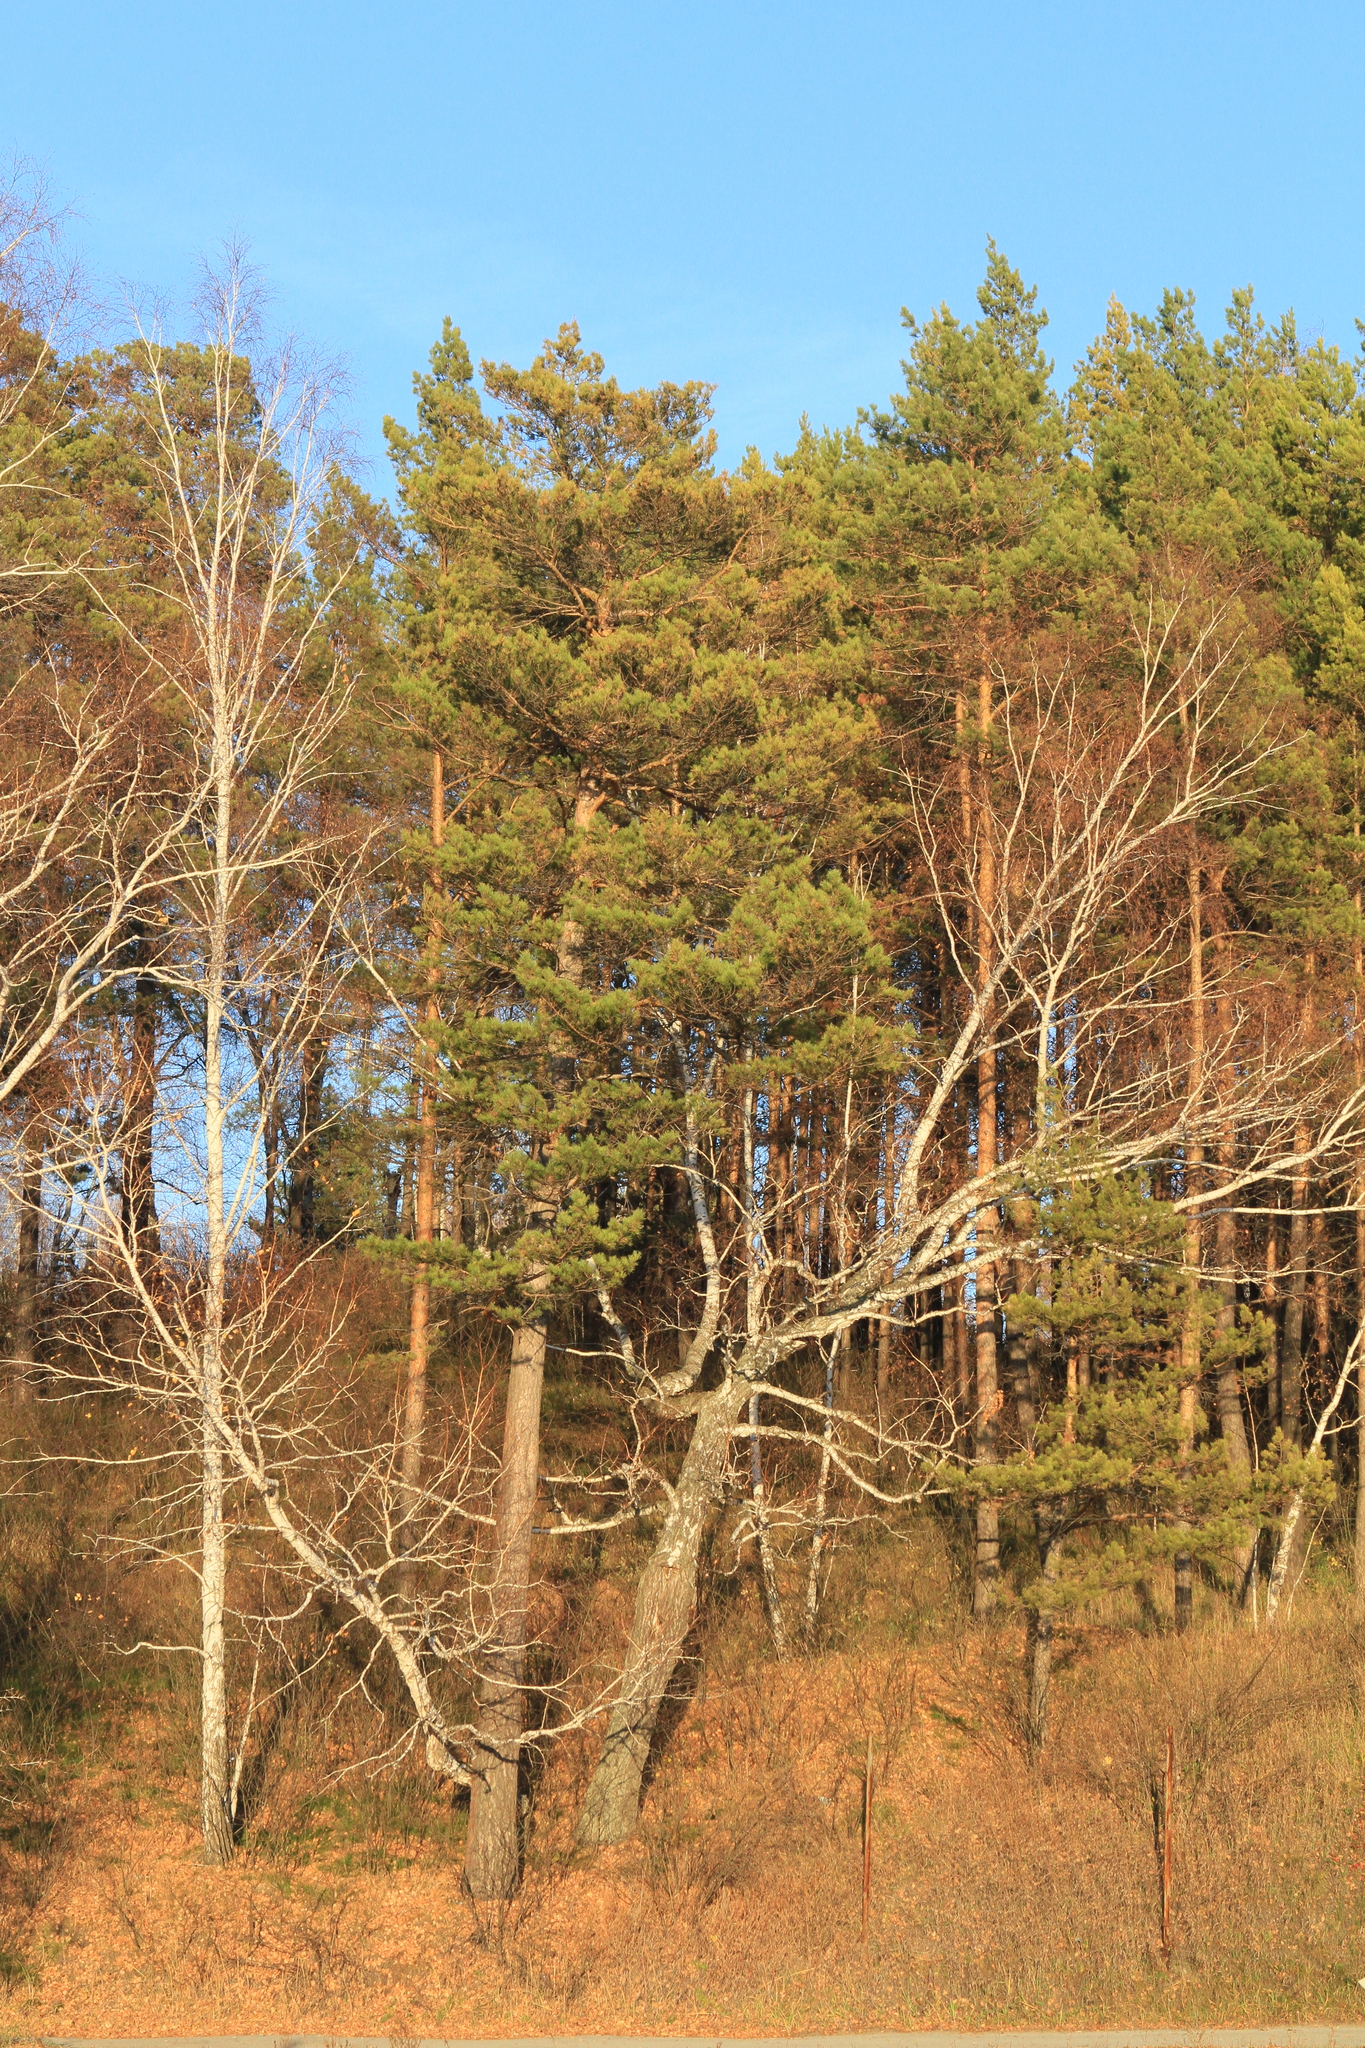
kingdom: Plantae
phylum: Tracheophyta
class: Pinopsida
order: Pinales
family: Pinaceae
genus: Pinus
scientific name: Pinus sylvestris
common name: Scots pine
